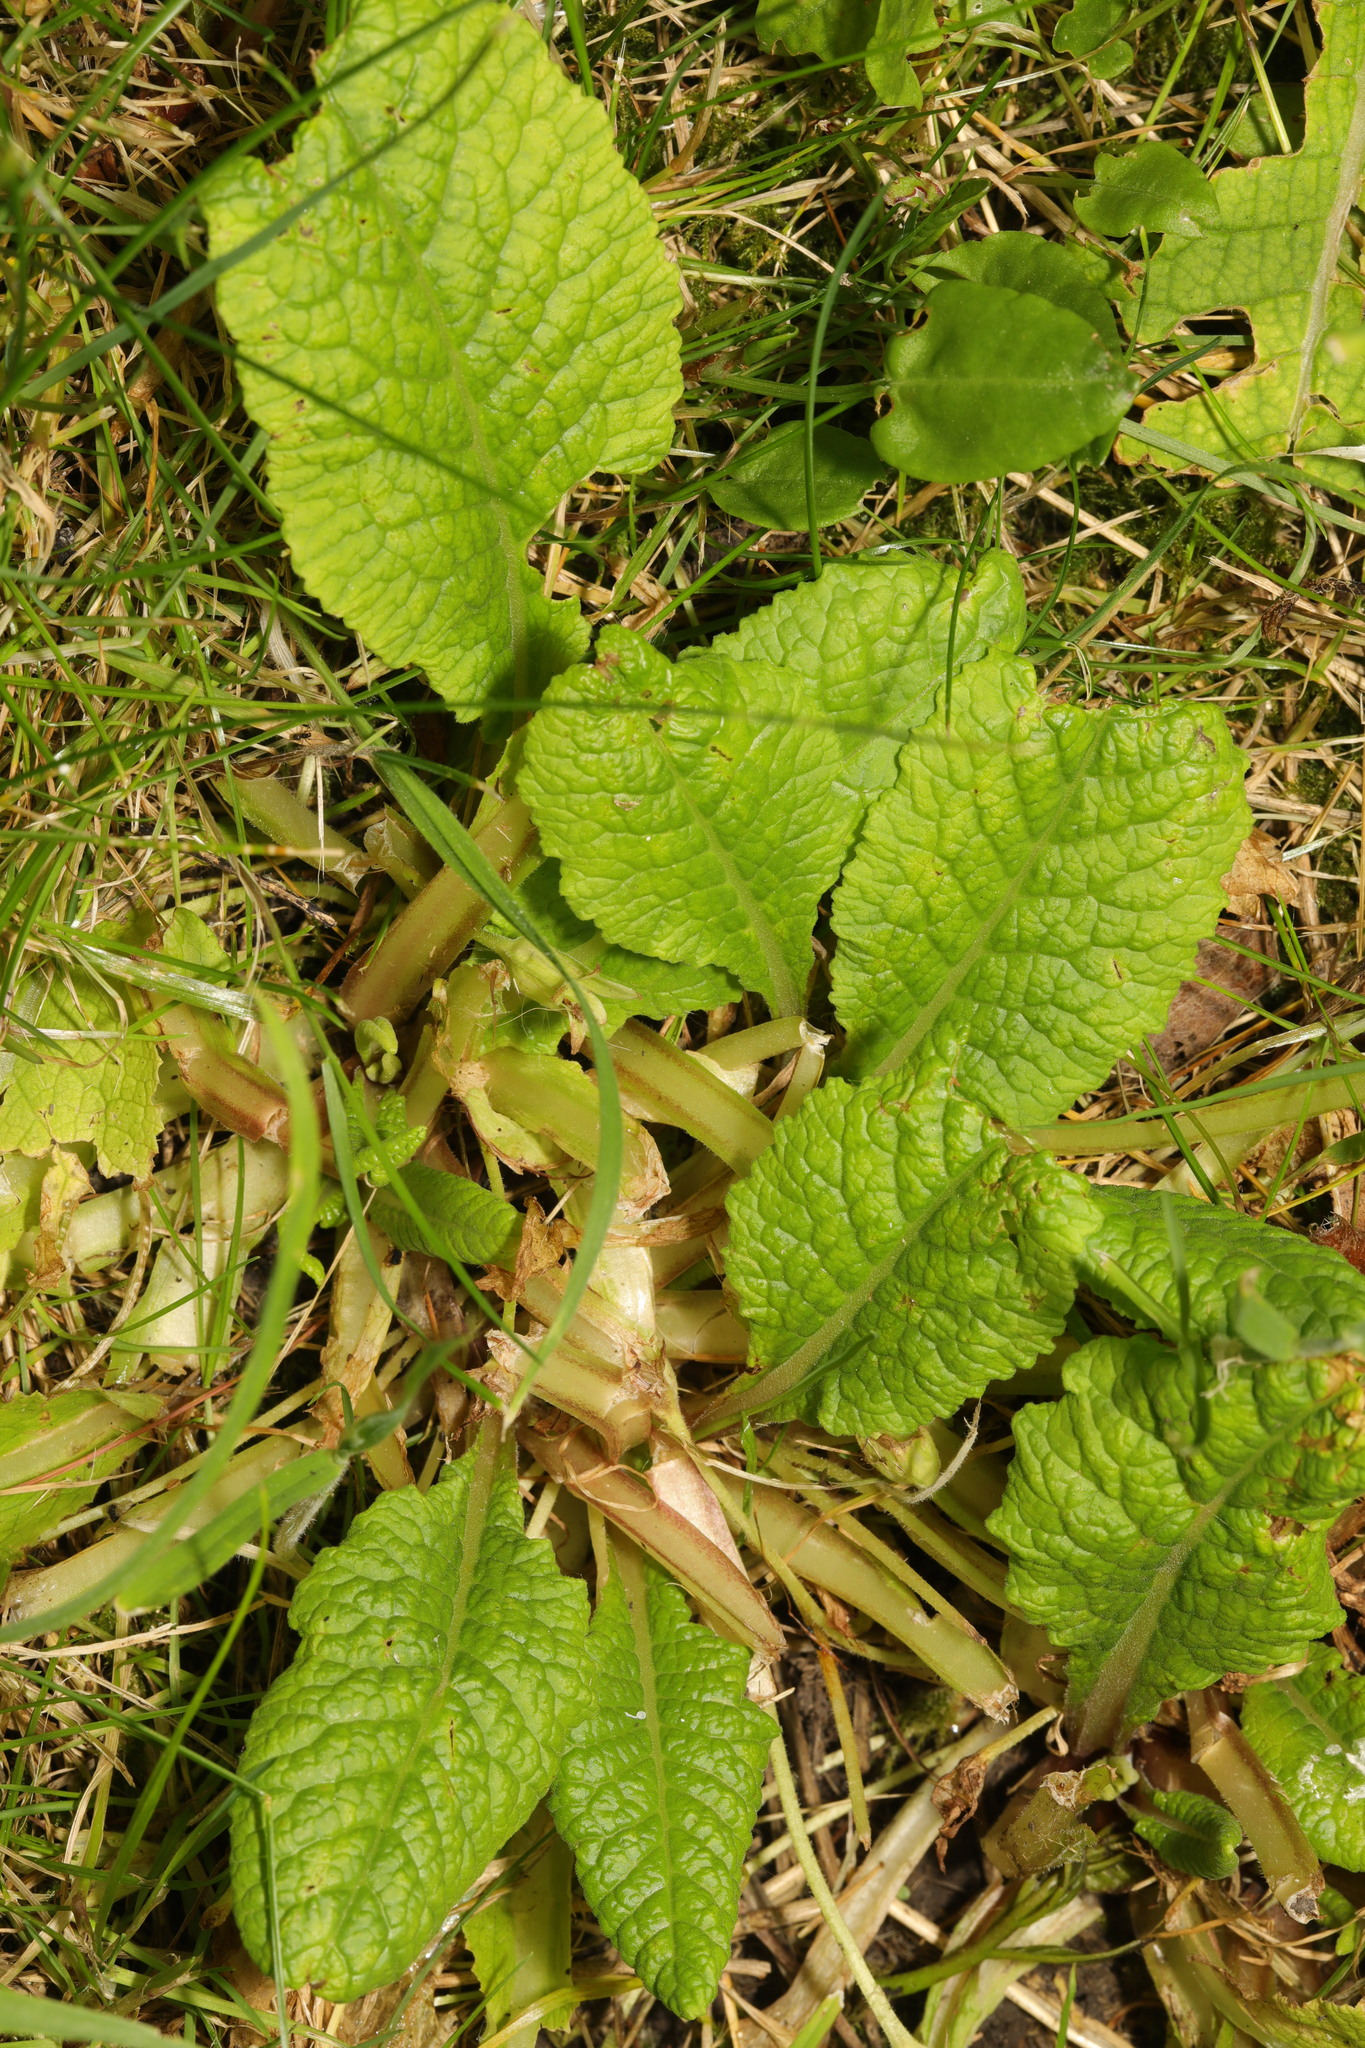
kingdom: Plantae
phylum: Tracheophyta
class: Magnoliopsida
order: Ericales
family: Primulaceae
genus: Primula
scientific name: Primula vulgaris
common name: Primrose
